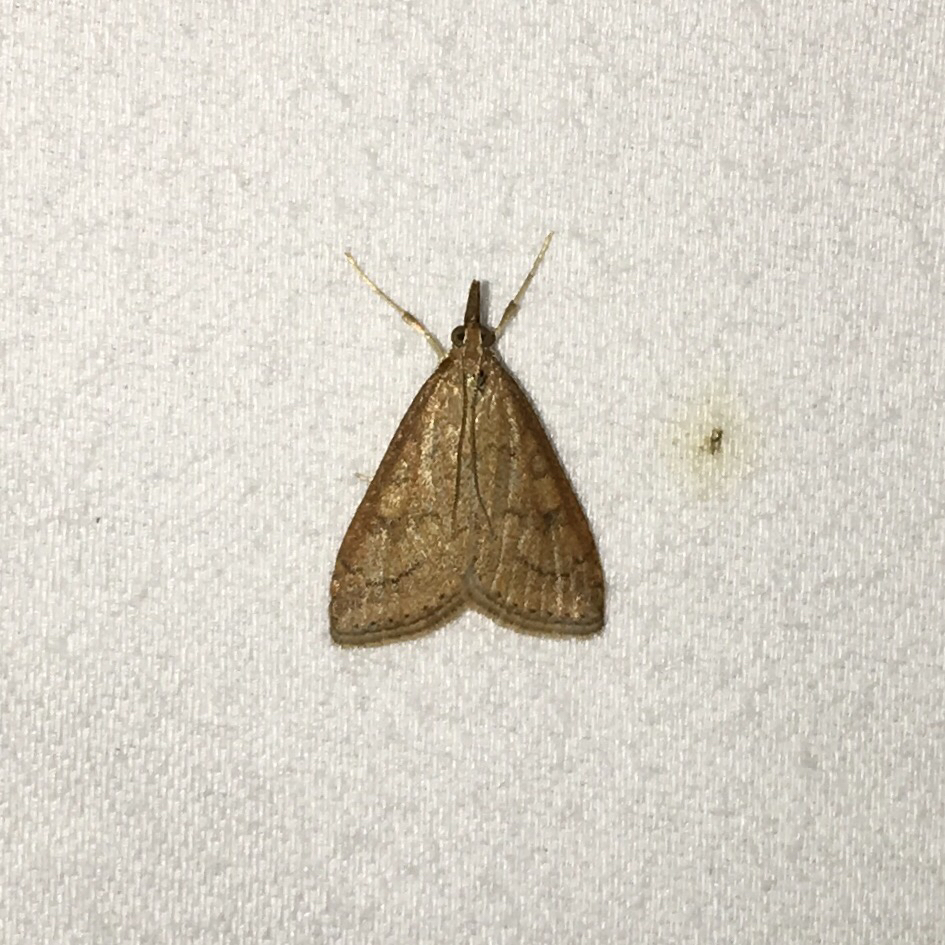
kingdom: Animalia
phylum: Arthropoda
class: Insecta
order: Lepidoptera
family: Crambidae
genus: Udea
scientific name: Udea rubigalis
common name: Celery leaftier moth
